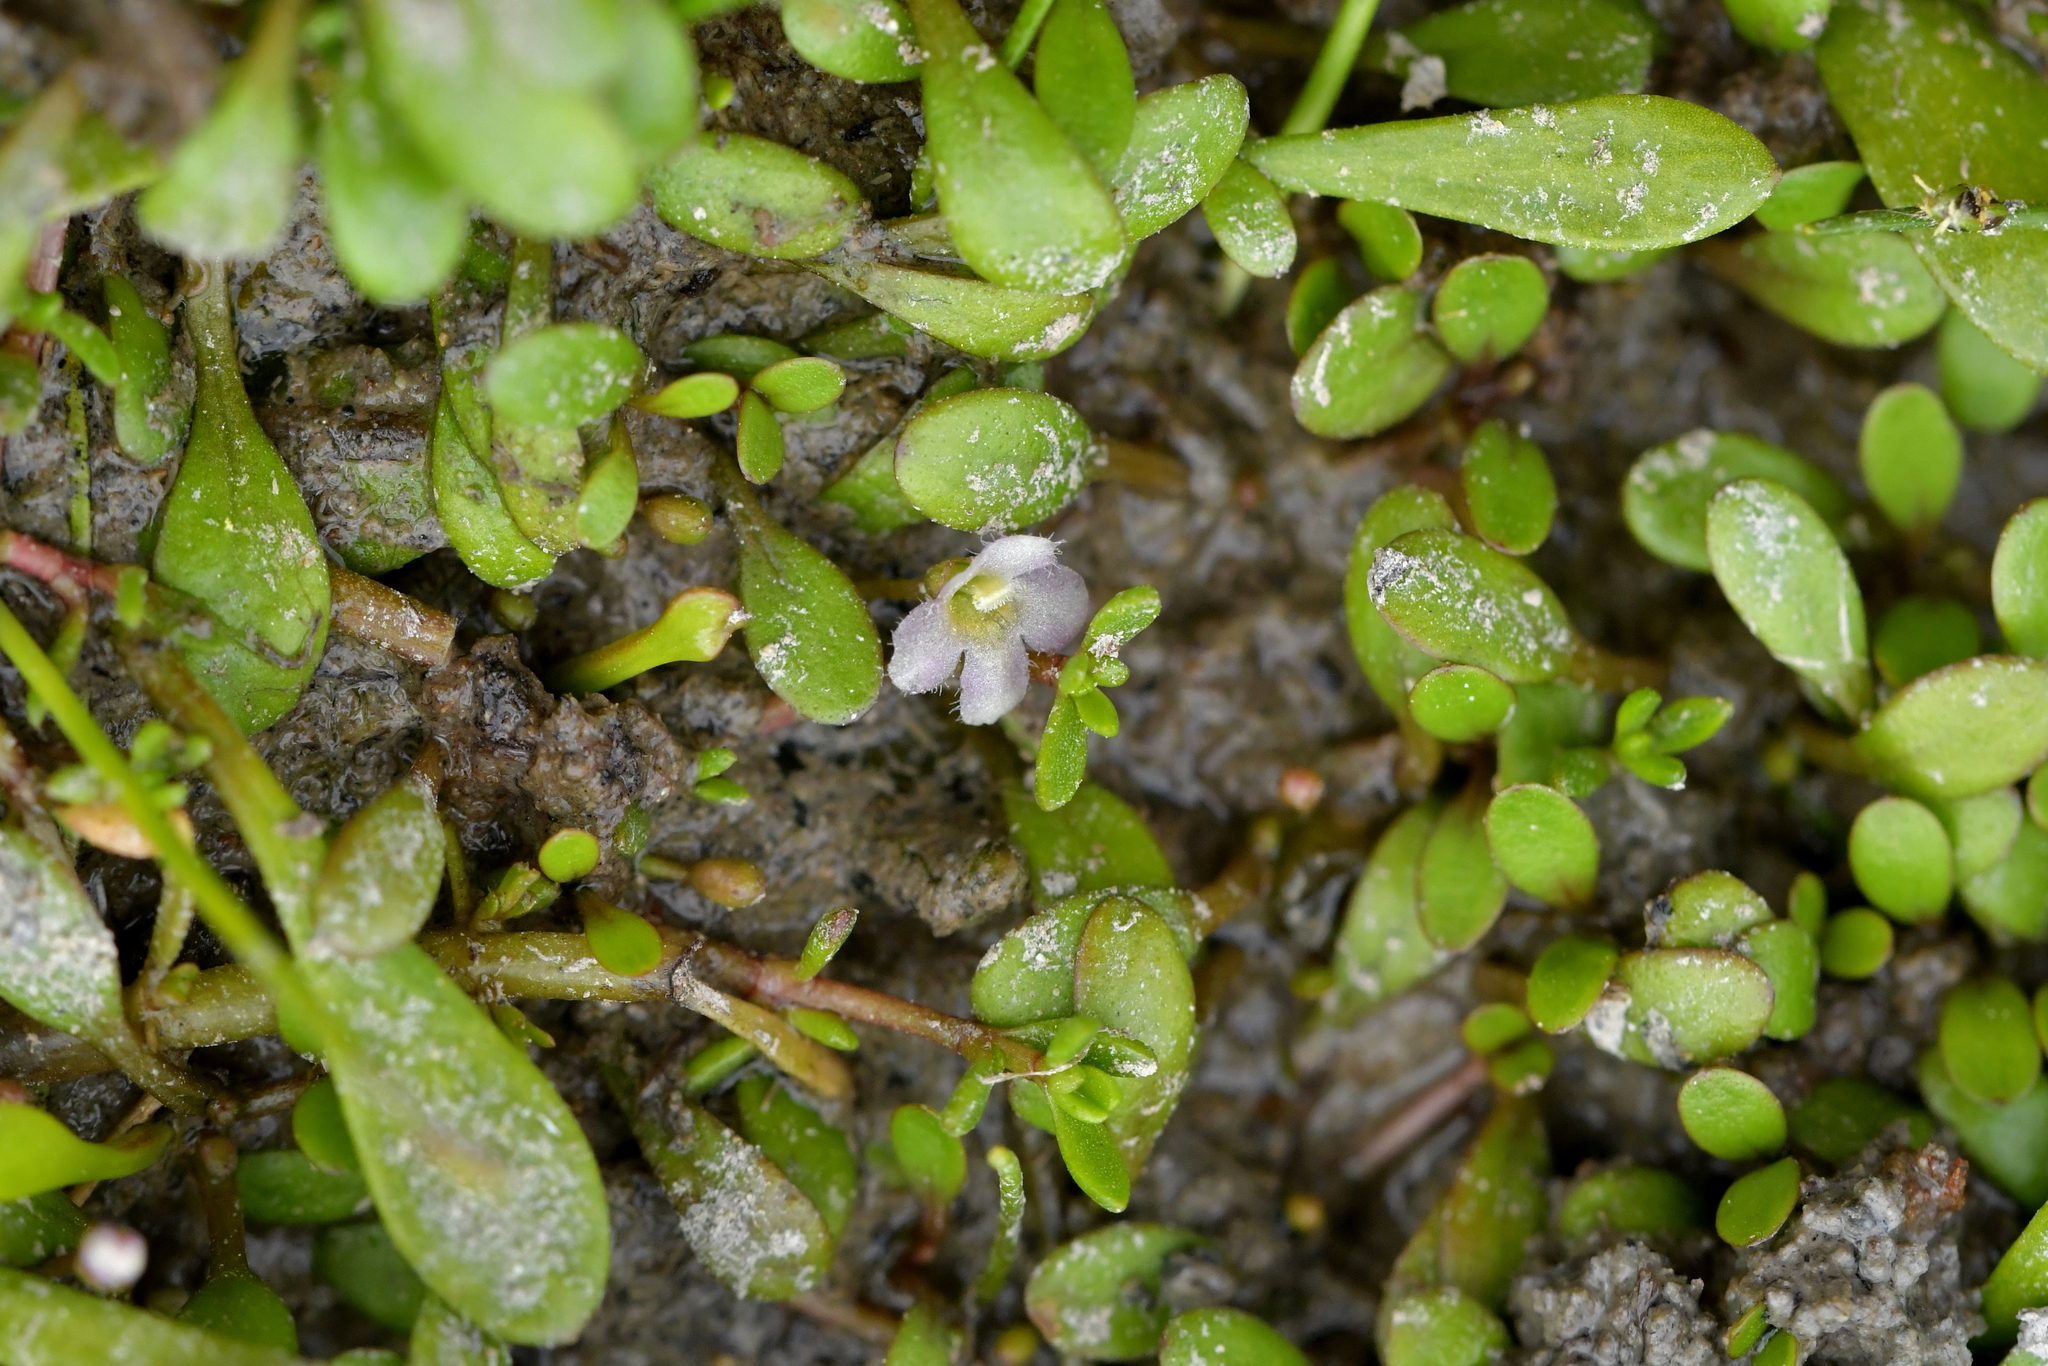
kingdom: Plantae
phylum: Tracheophyta
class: Magnoliopsida
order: Lamiales
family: Phrymaceae
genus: Glossostigma
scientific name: Glossostigma elatinoides
